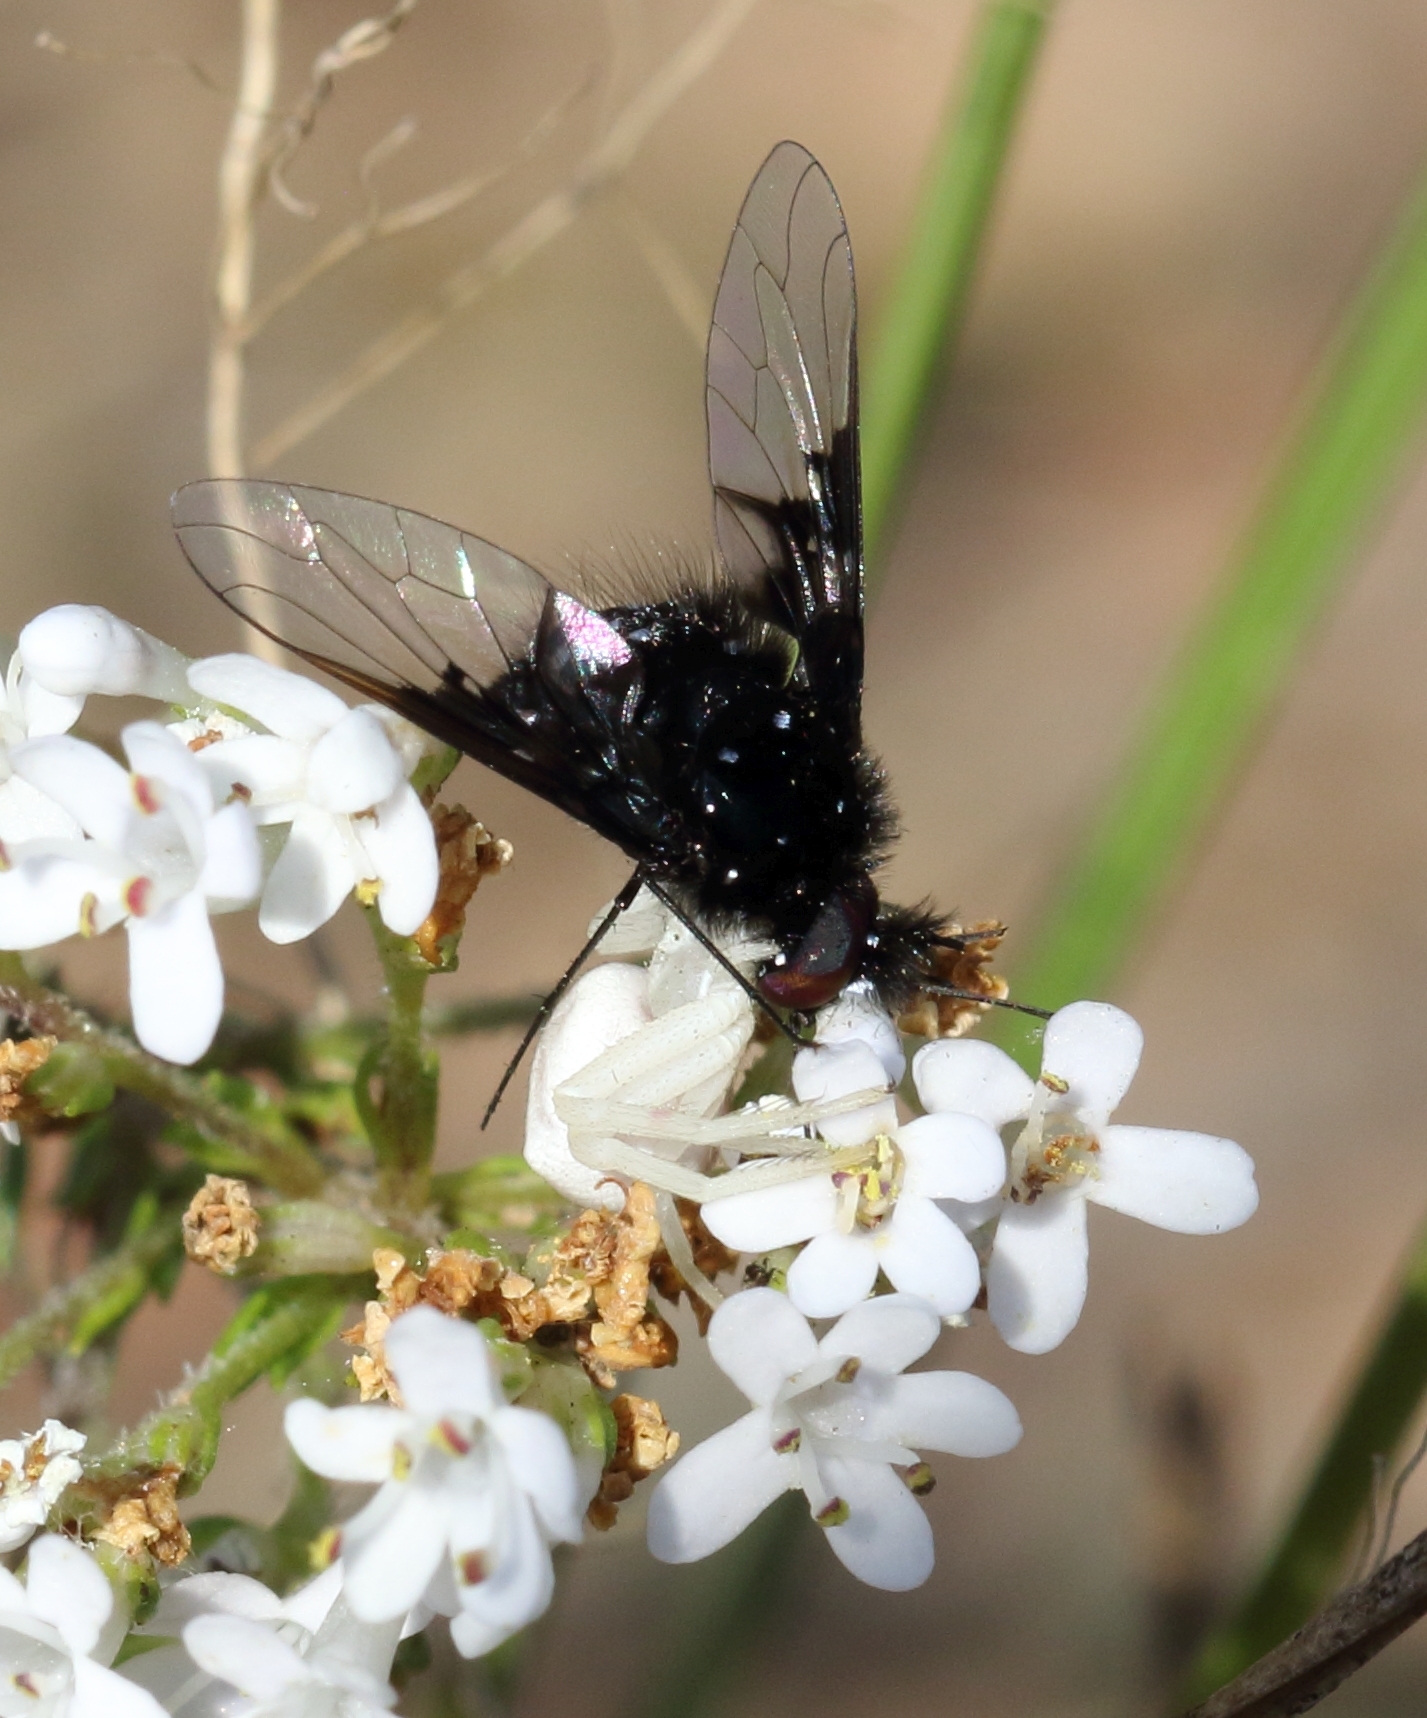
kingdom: Animalia
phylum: Arthropoda
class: Insecta
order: Diptera
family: Bombyliidae
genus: Bombylella
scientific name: Bombylella delicata
